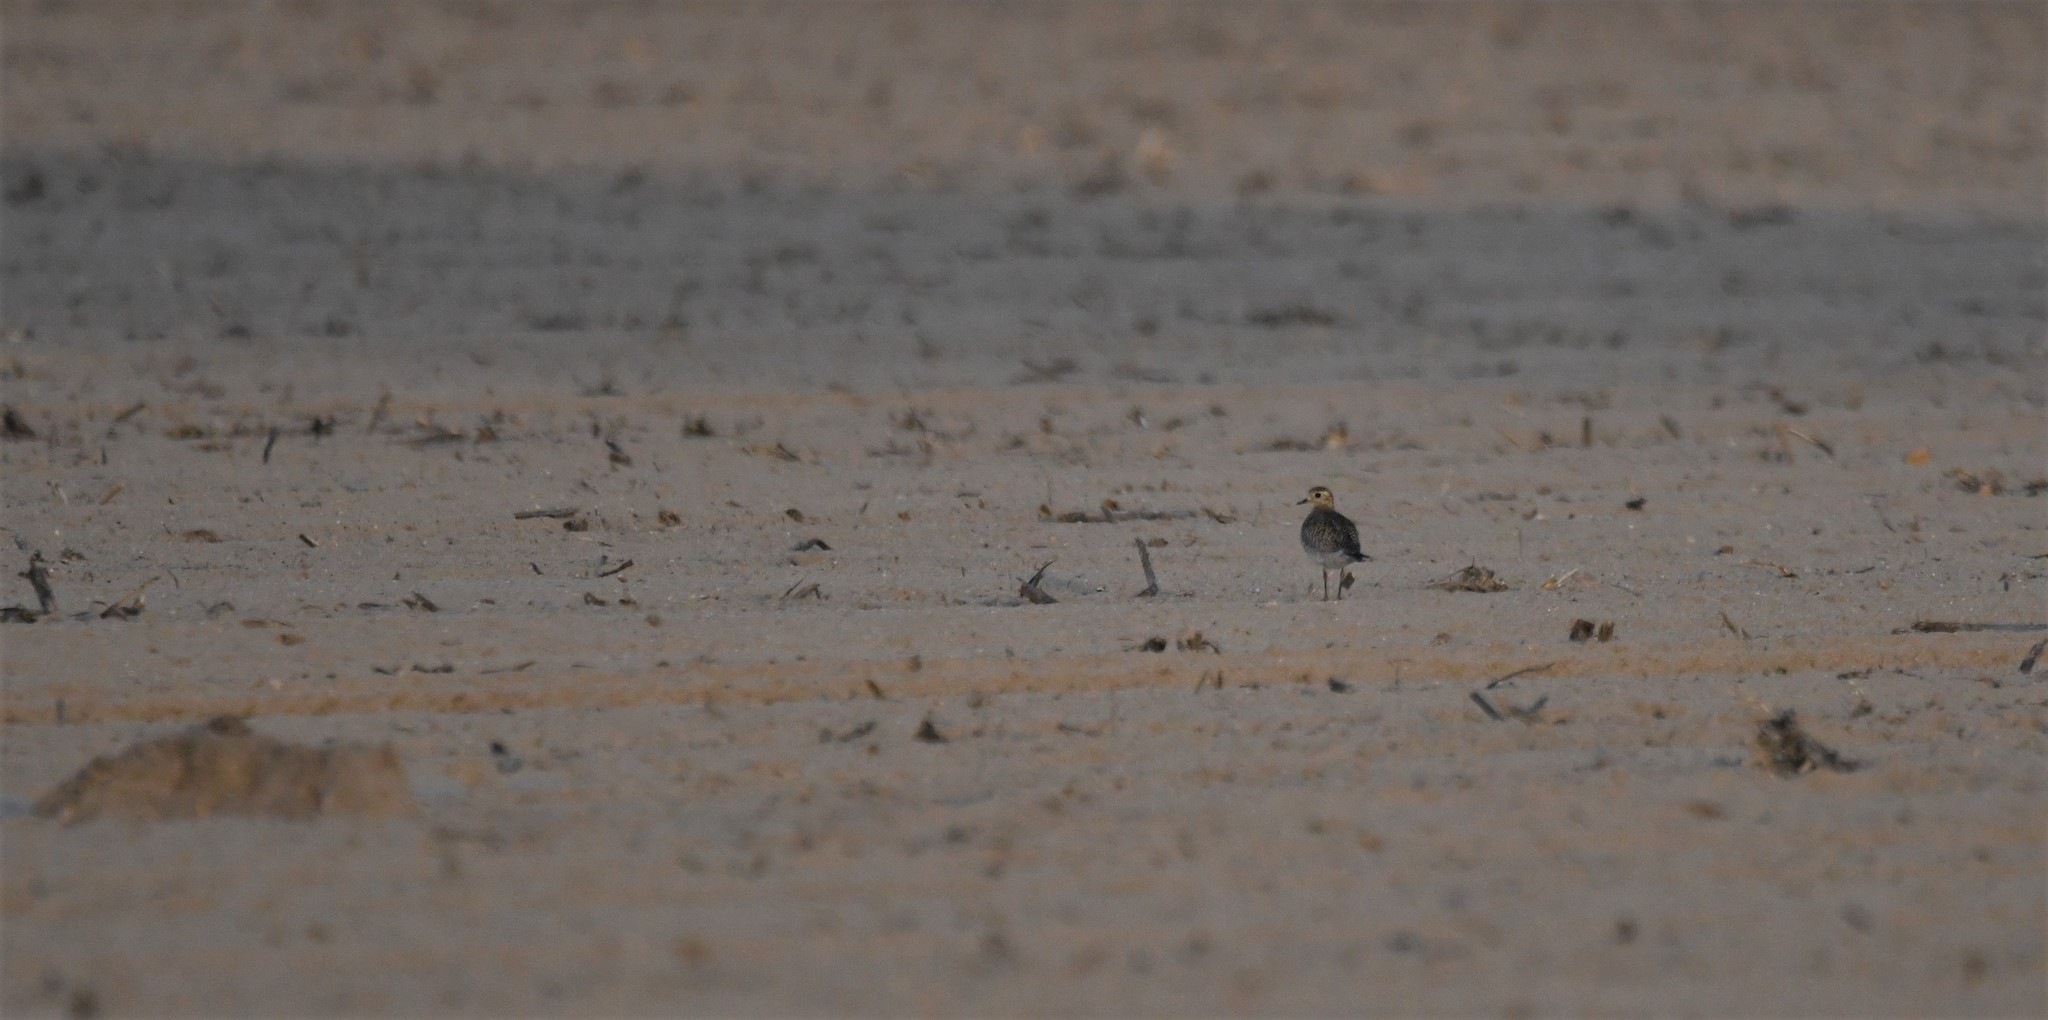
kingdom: Animalia
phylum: Chordata
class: Aves
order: Charadriiformes
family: Charadriidae
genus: Pluvialis
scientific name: Pluvialis apricaria
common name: European golden plover
